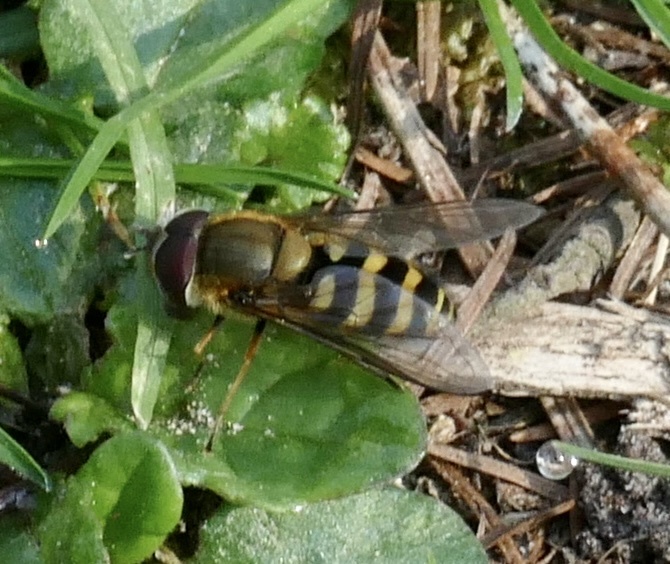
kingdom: Animalia
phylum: Arthropoda
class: Insecta
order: Diptera
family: Syrphidae
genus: Syrphus
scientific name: Syrphus
